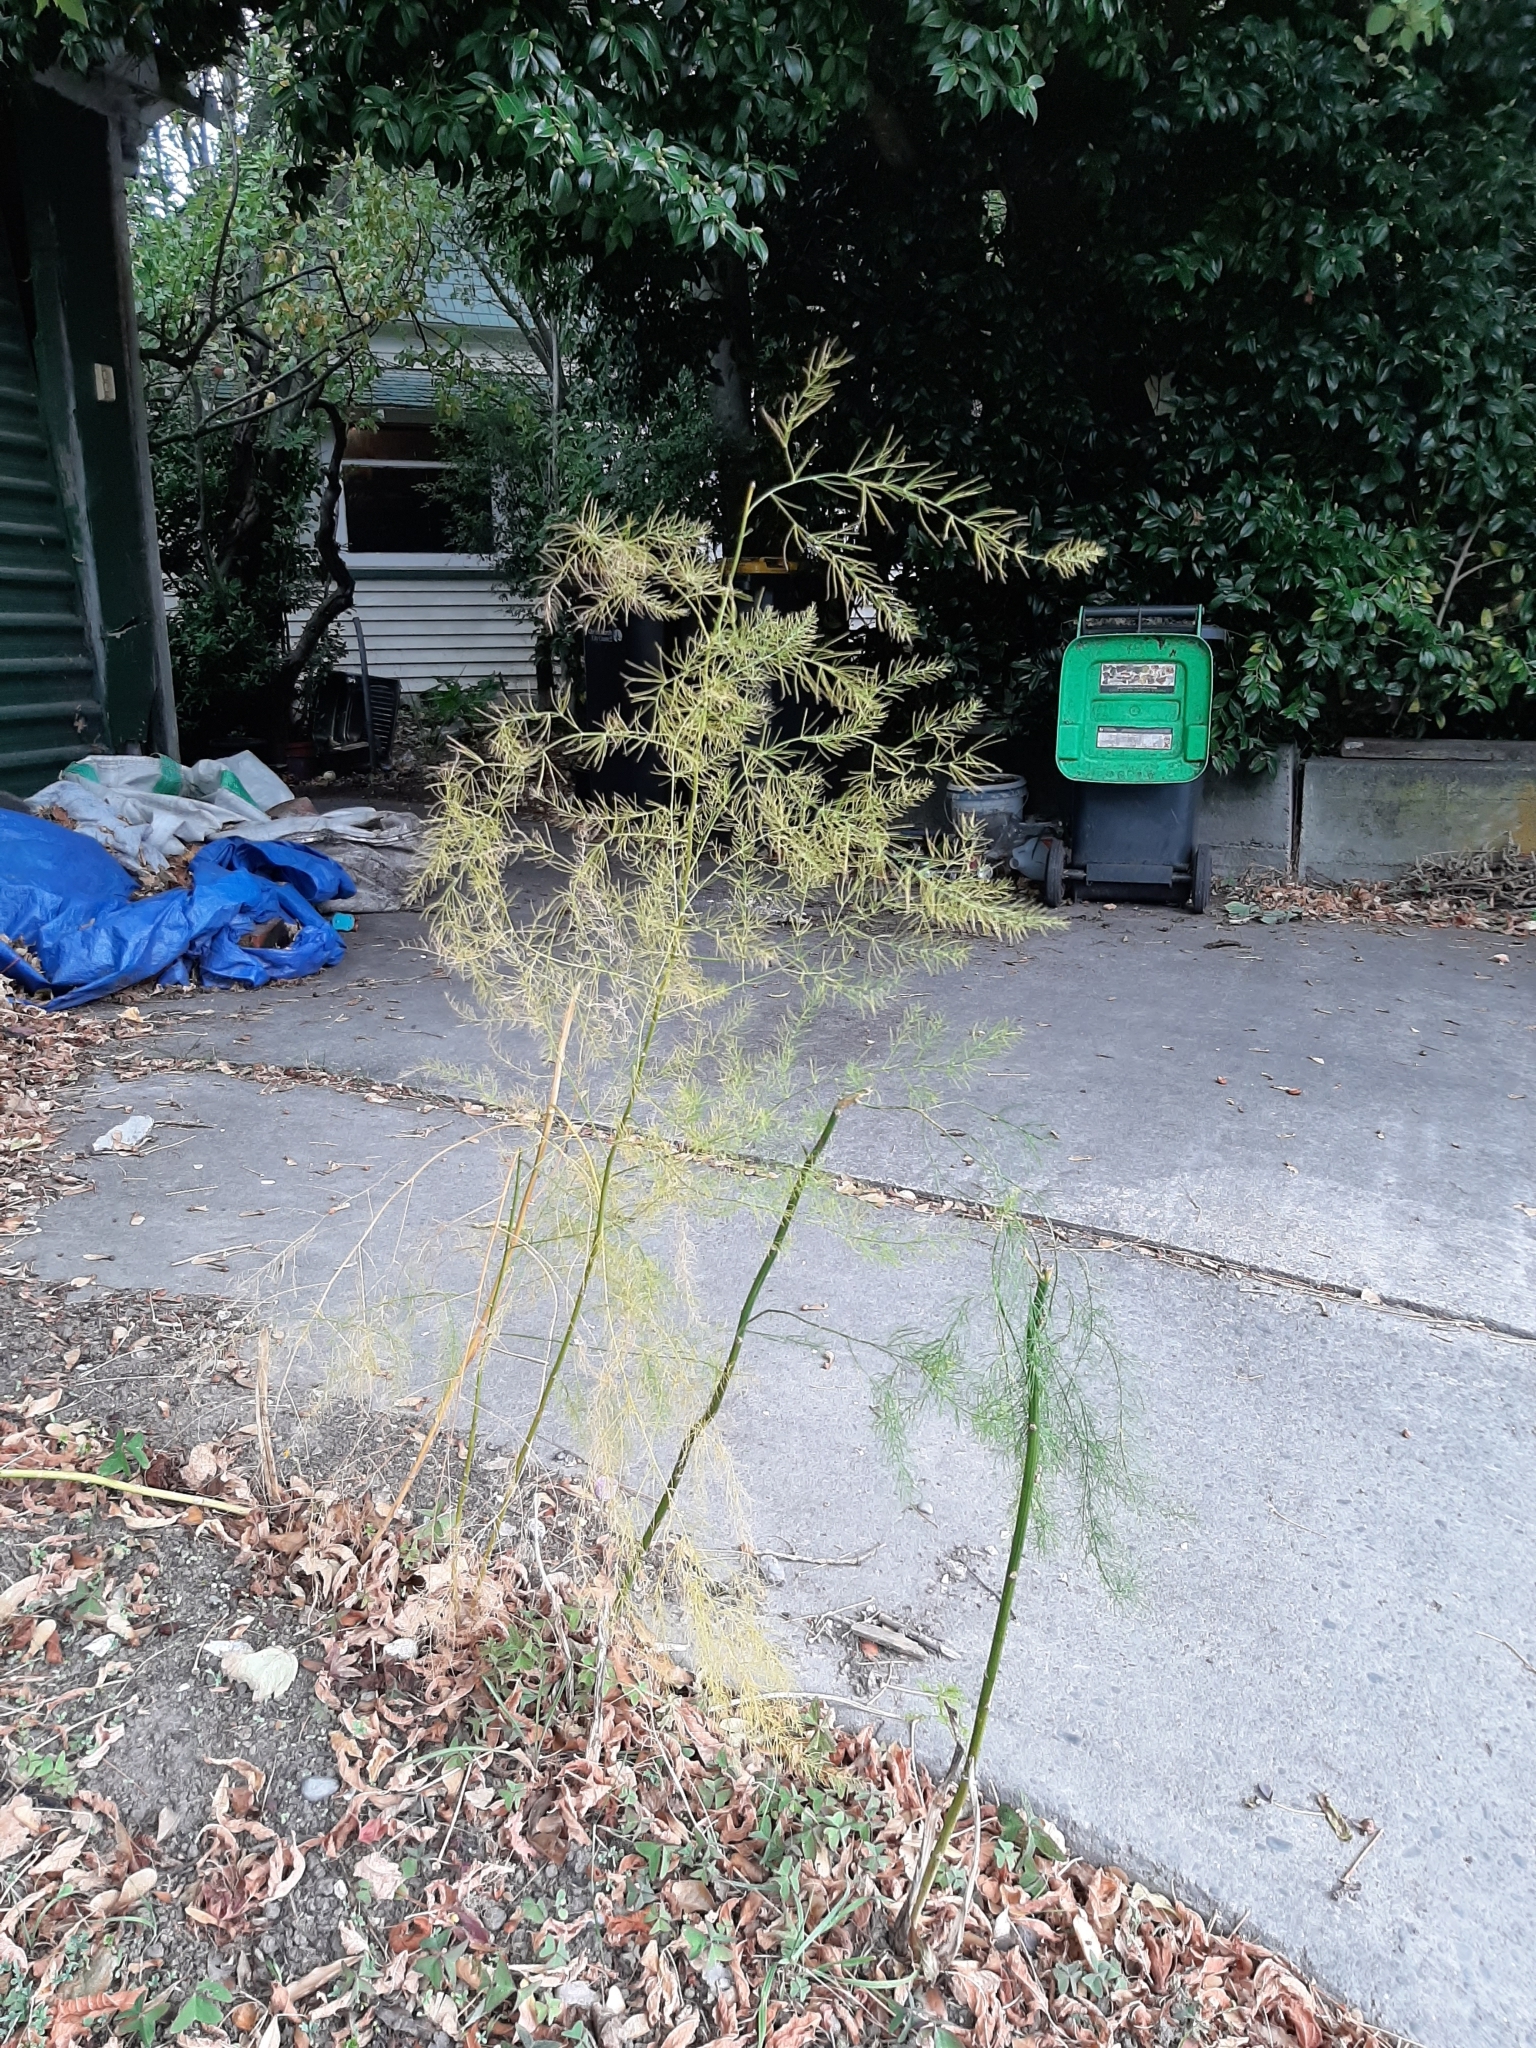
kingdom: Plantae
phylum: Tracheophyta
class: Liliopsida
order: Asparagales
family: Asparagaceae
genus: Asparagus
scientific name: Asparagus officinalis
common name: Garden asparagus
